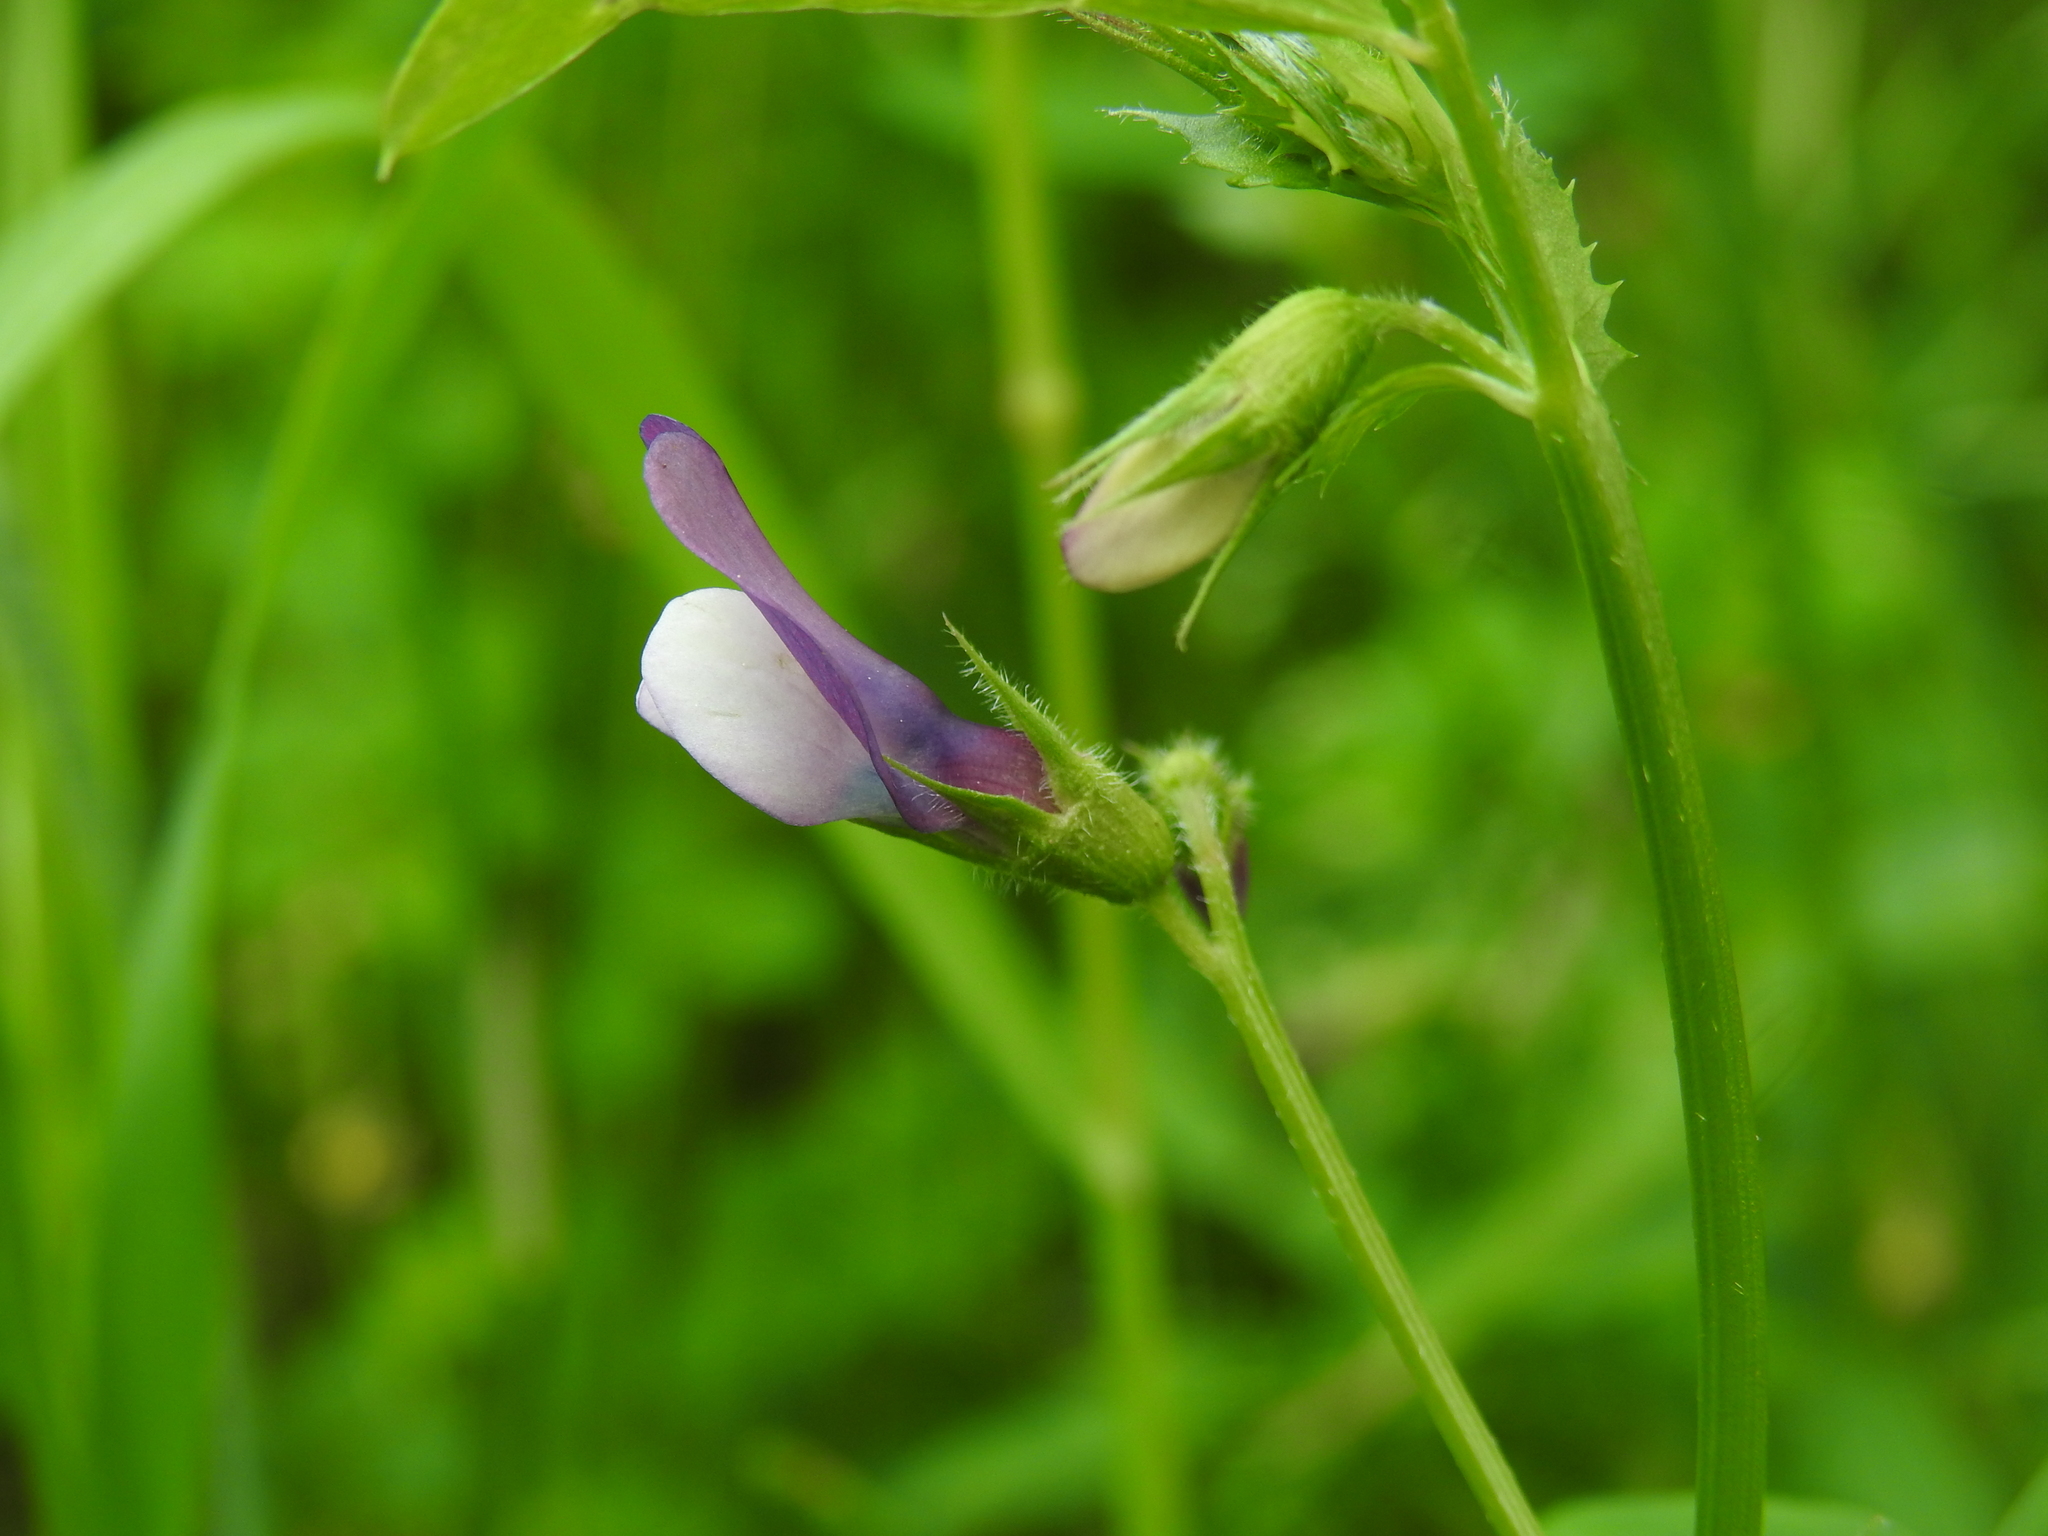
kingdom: Plantae
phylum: Tracheophyta
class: Magnoliopsida
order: Fabales
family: Fabaceae
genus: Vicia
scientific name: Vicia bithynica
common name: Bithynian vetch
